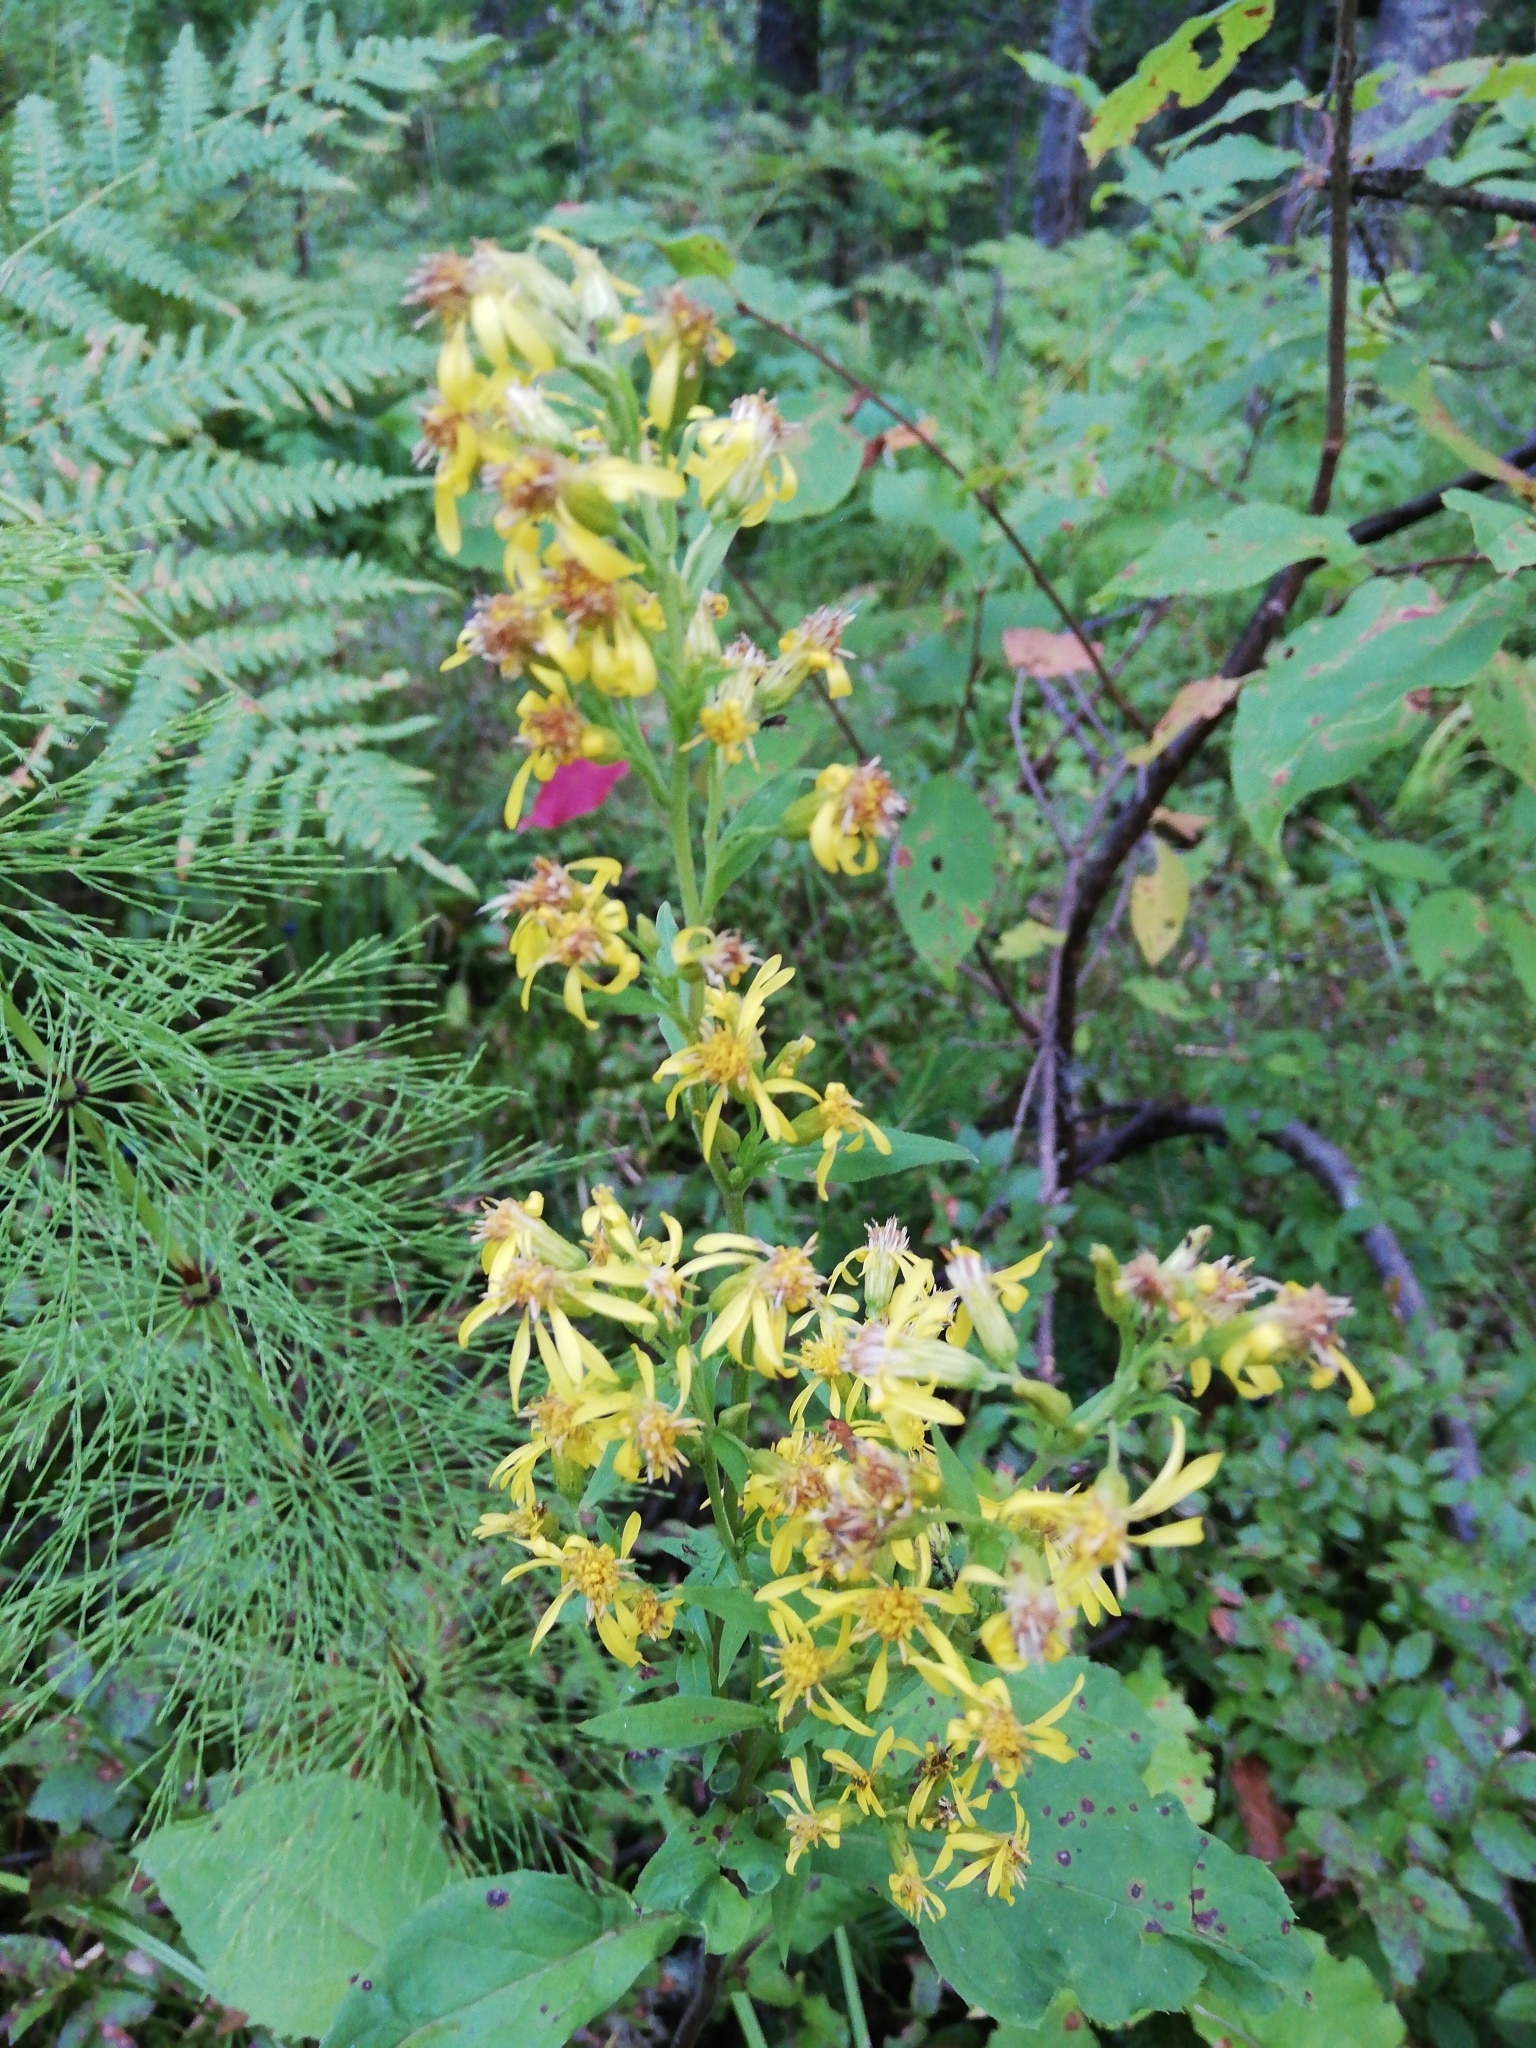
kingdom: Plantae
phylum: Tracheophyta
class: Magnoliopsida
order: Asterales
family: Asteraceae
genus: Solidago
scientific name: Solidago virgaurea
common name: Goldenrod
